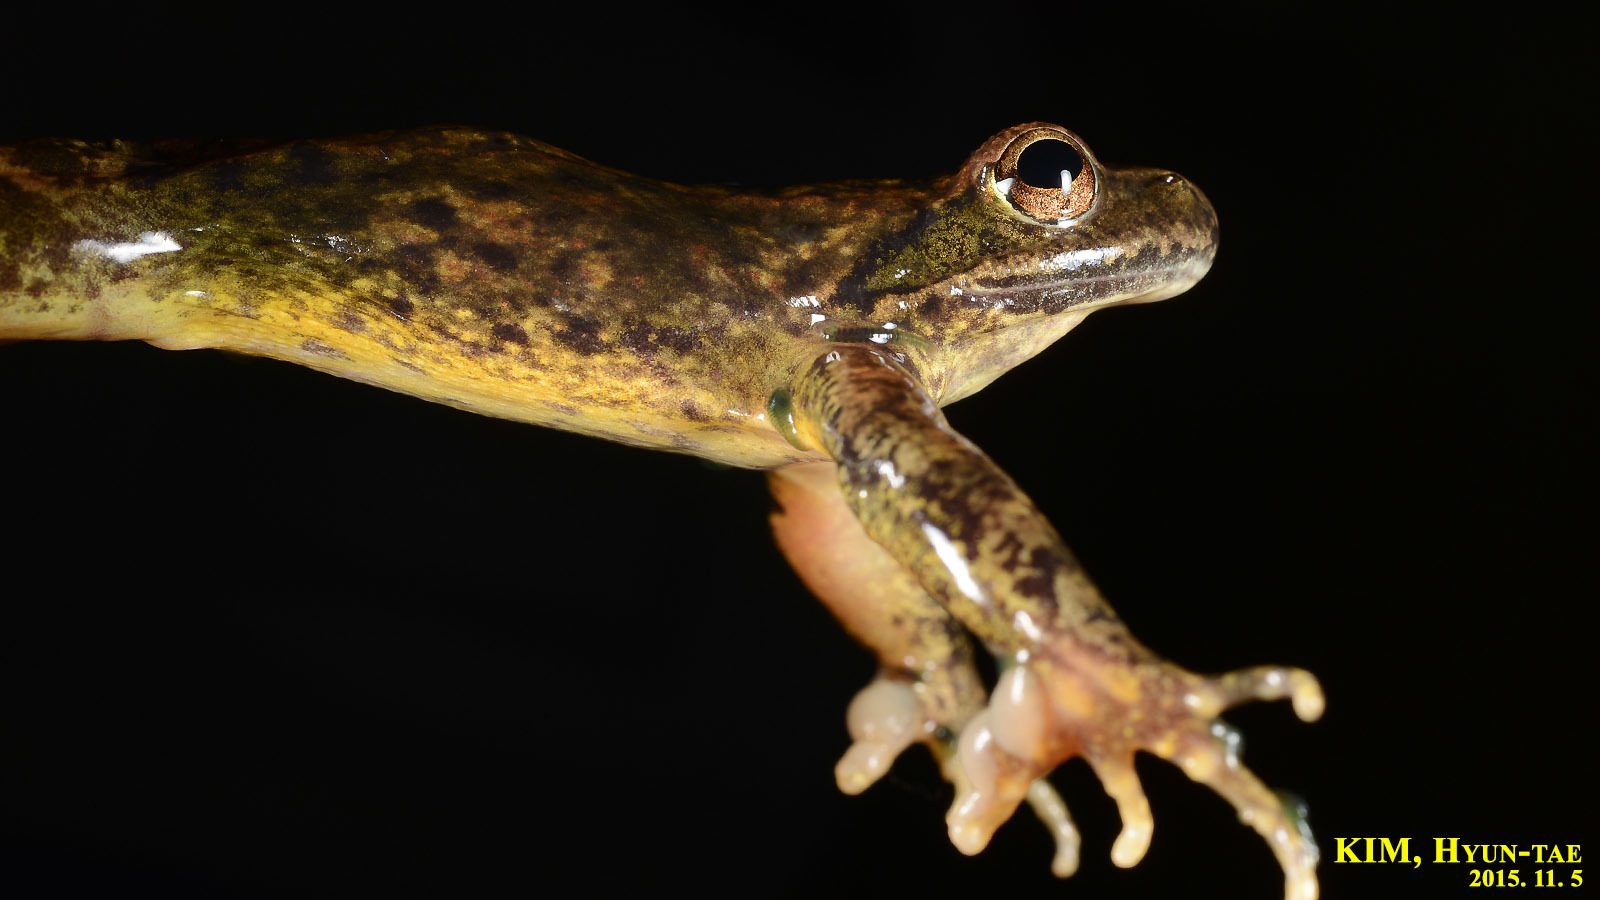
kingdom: Animalia
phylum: Chordata
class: Amphibia
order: Anura
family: Ranidae
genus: Rana
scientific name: Rana huanrenensis
